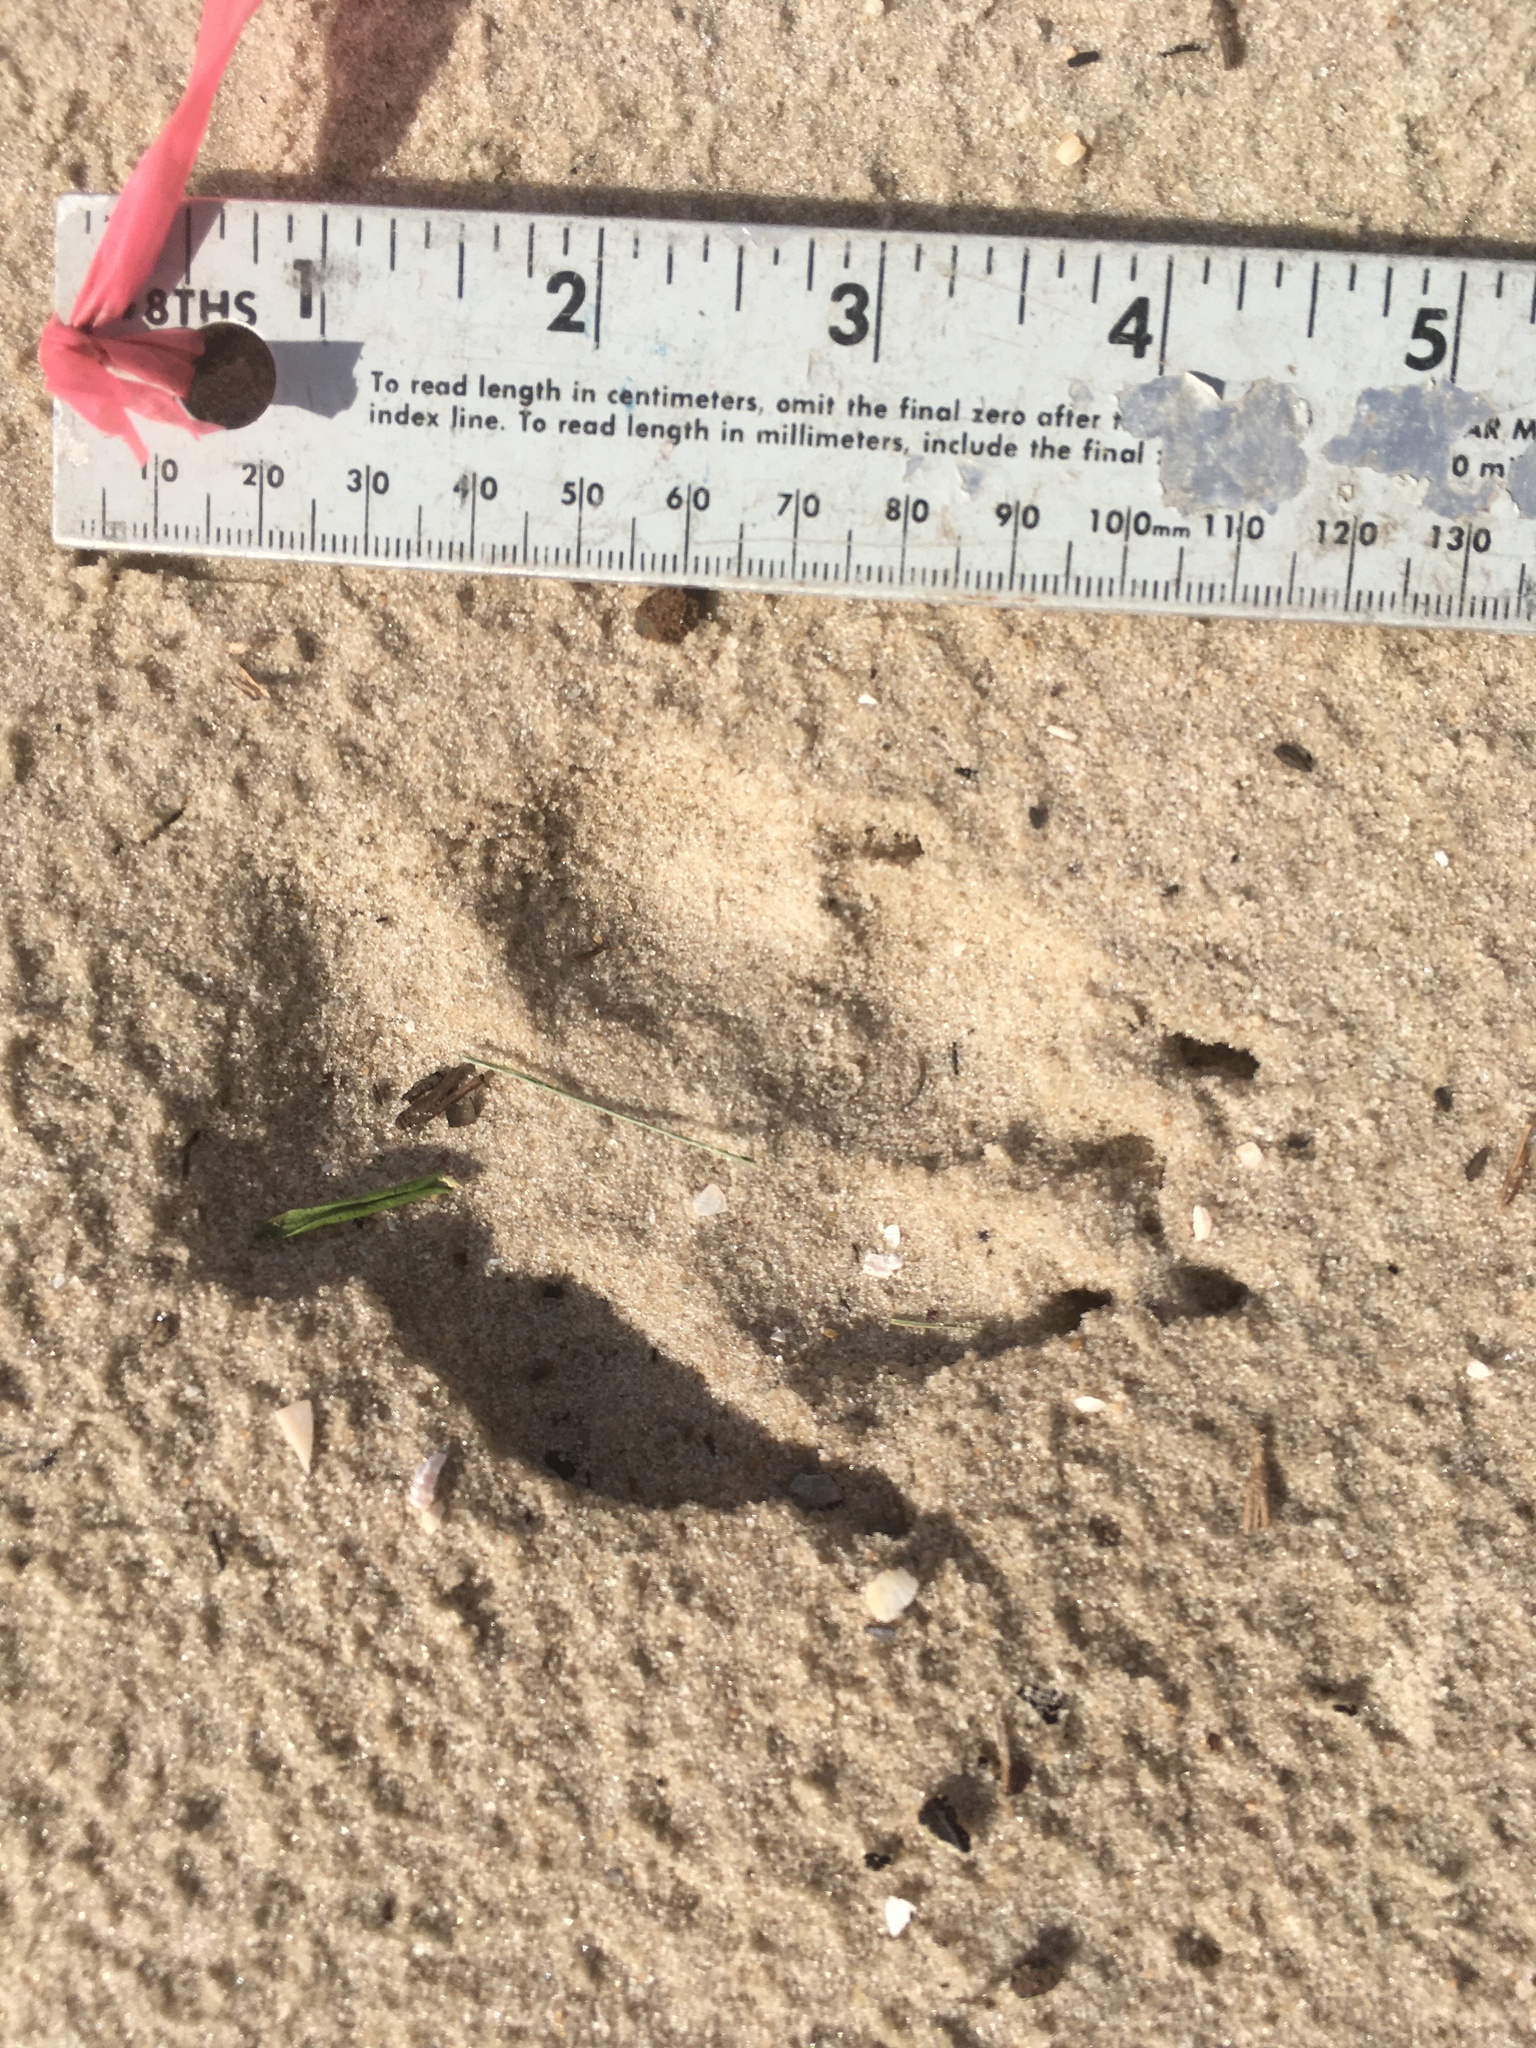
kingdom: Animalia
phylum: Chordata
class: Mammalia
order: Carnivora
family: Canidae
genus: Canis
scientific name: Canis lupus
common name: Gray wolf
